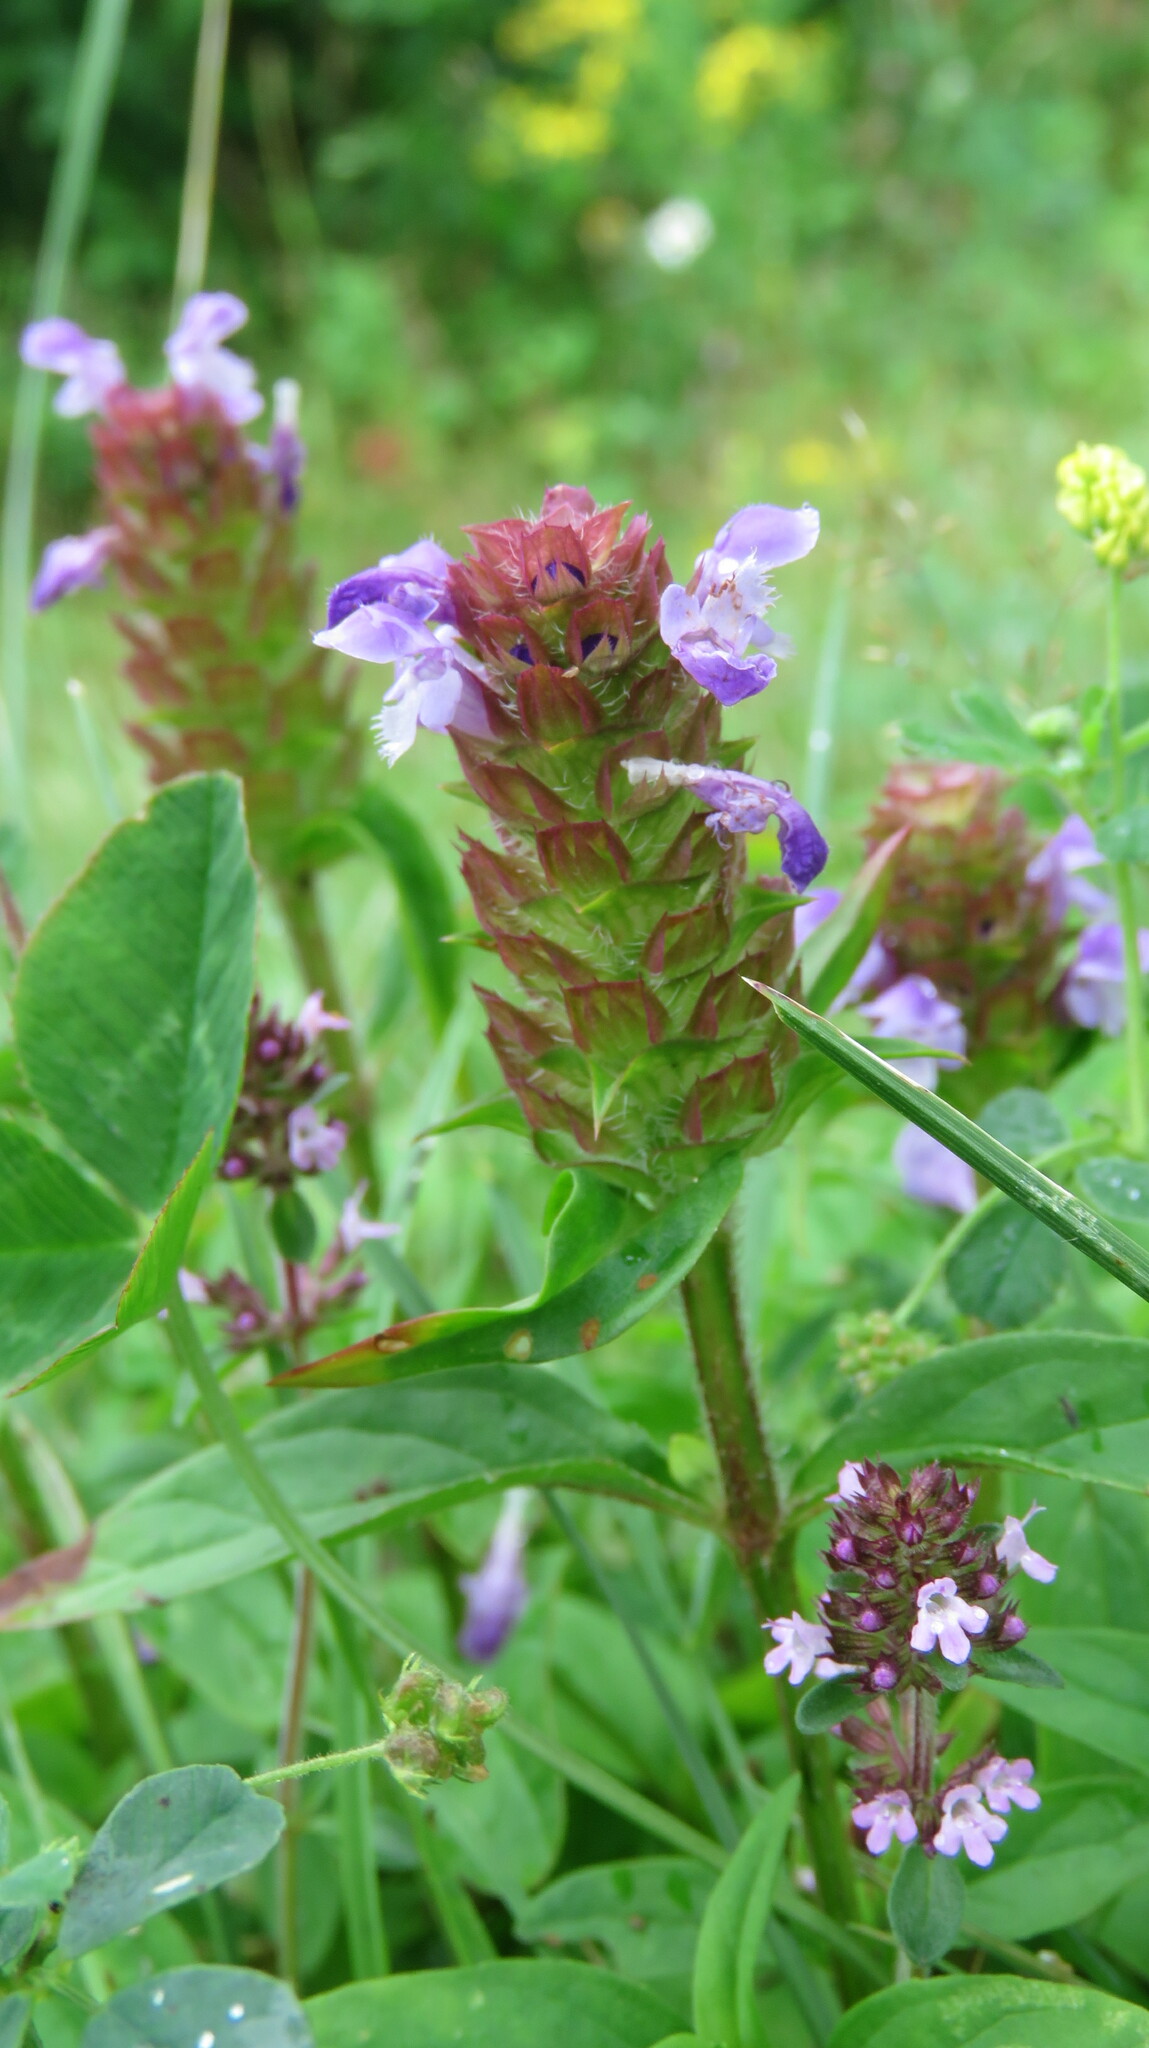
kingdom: Plantae
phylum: Tracheophyta
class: Magnoliopsida
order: Lamiales
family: Lamiaceae
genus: Prunella
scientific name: Prunella vulgaris
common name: Heal-all
